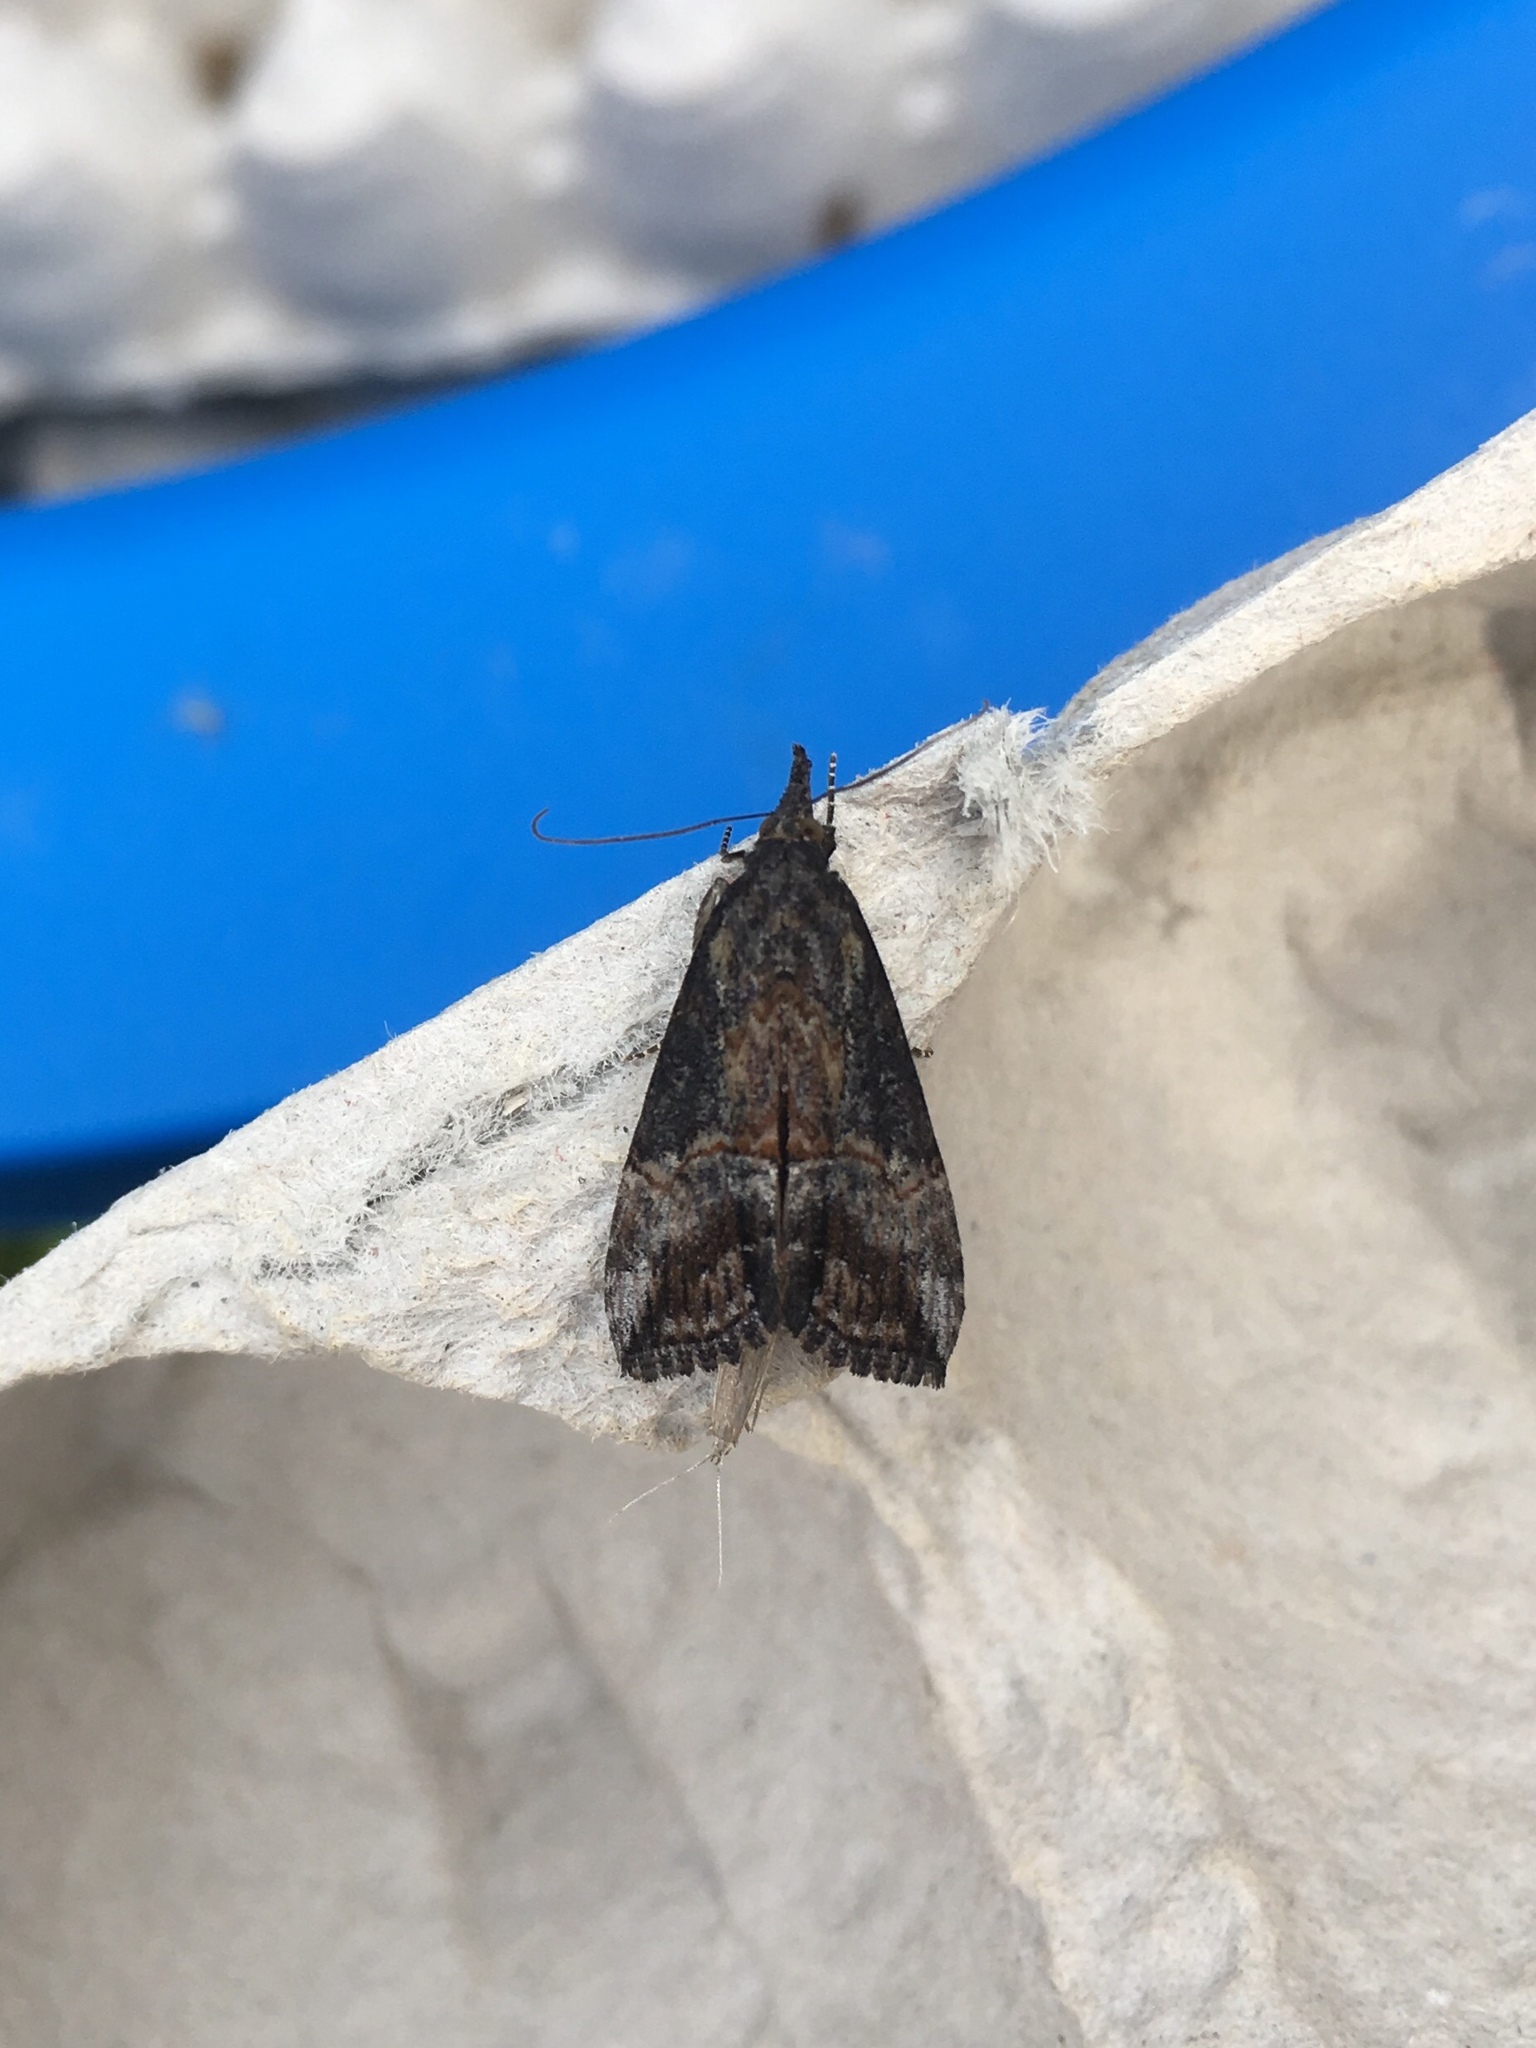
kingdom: Animalia
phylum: Arthropoda
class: Insecta
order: Lepidoptera
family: Erebidae
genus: Hypena
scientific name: Hypena scabra
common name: Green cloverworm
